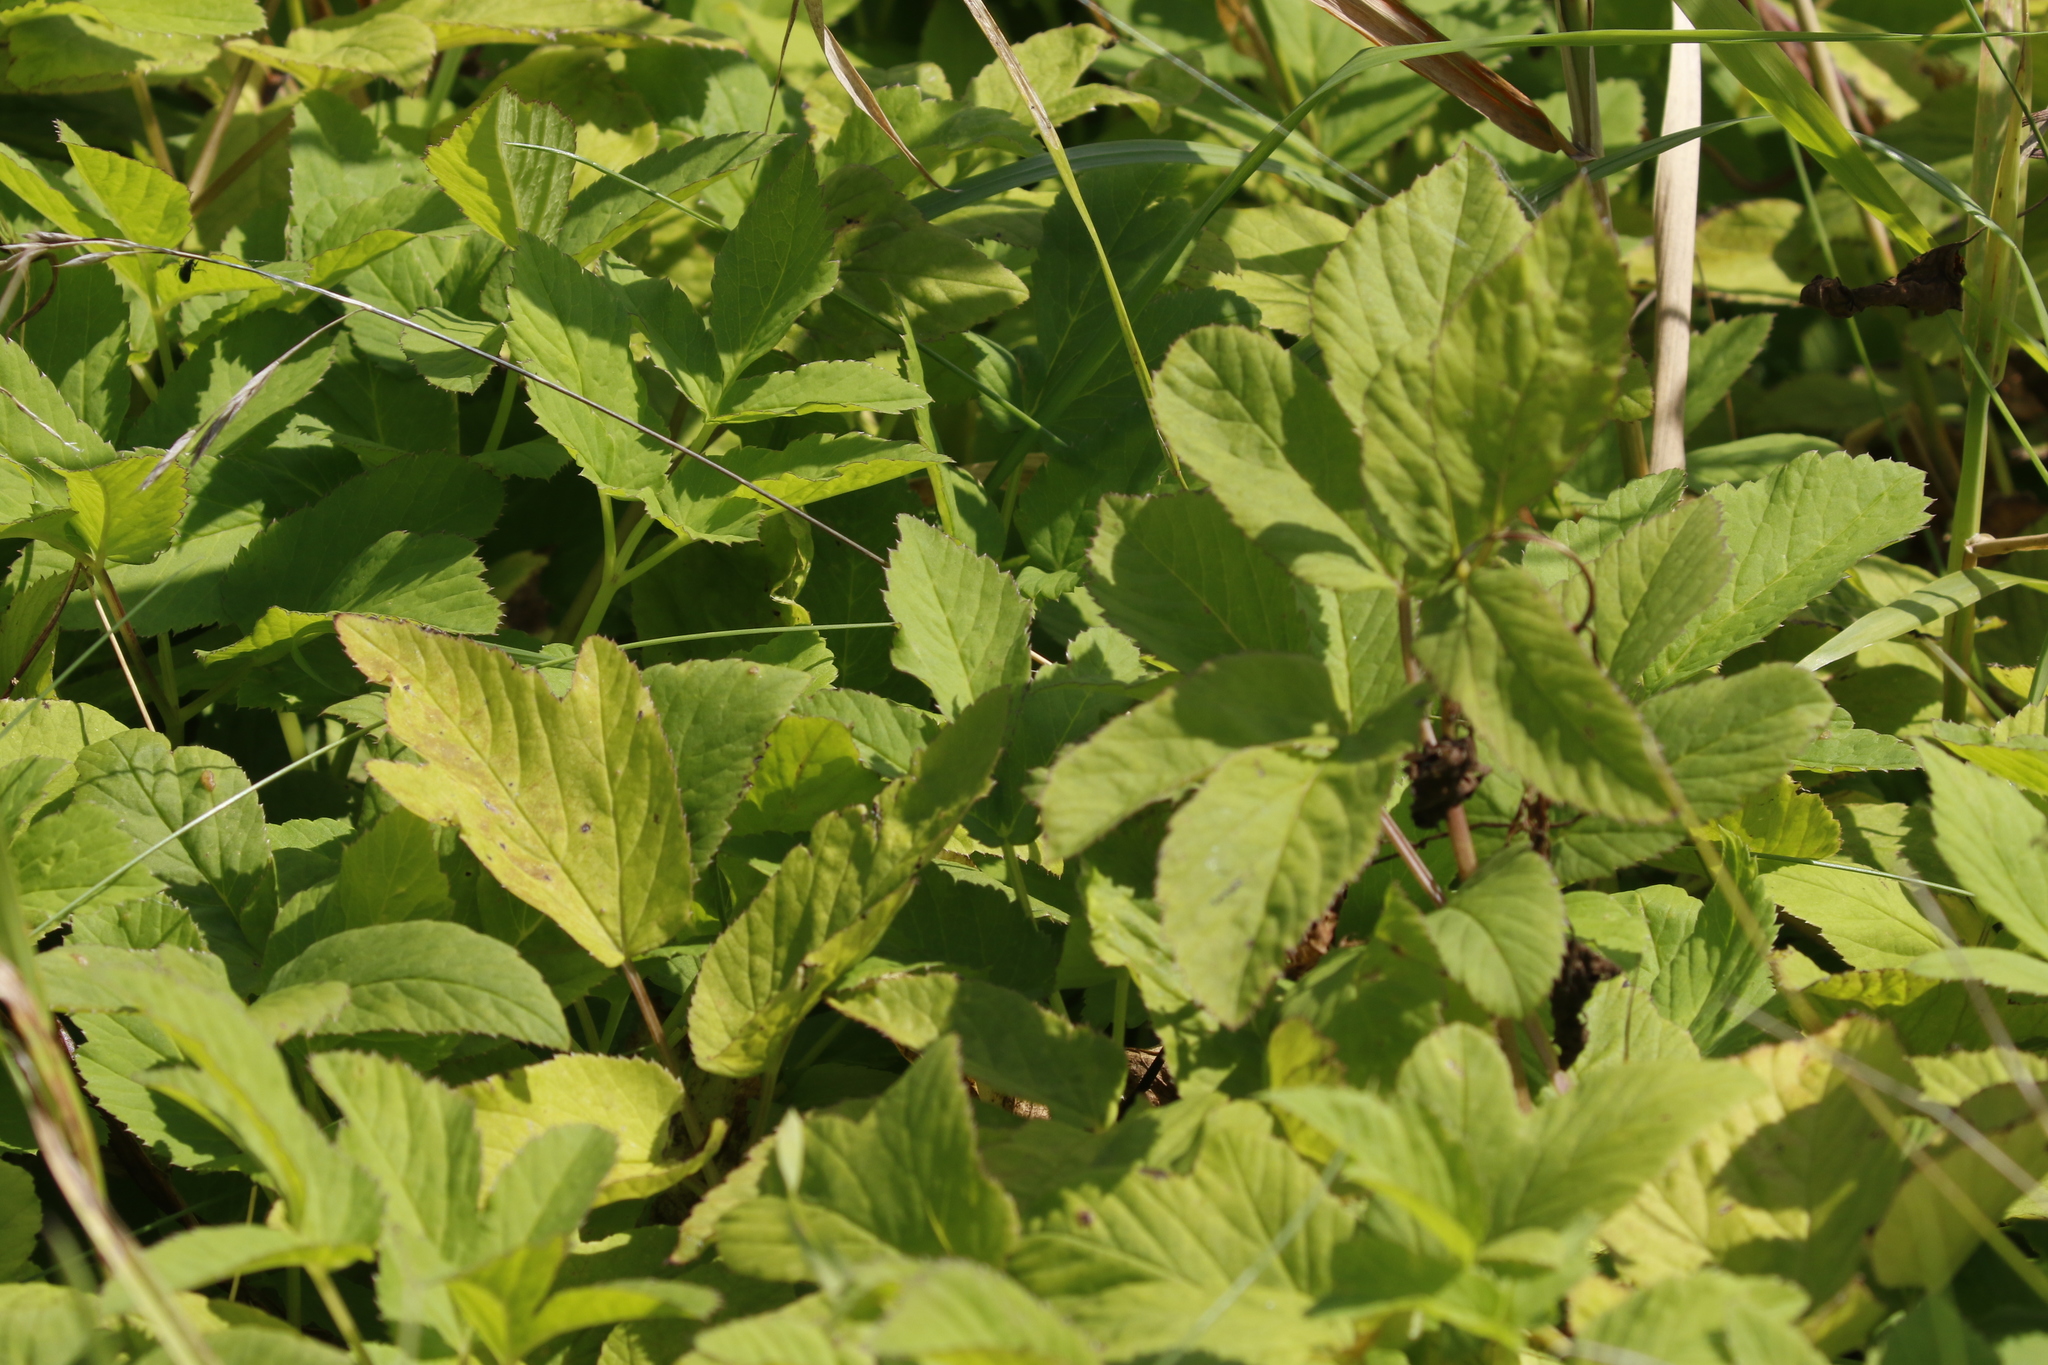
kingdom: Plantae
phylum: Tracheophyta
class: Magnoliopsida
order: Apiales
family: Apiaceae
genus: Aegopodium
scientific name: Aegopodium podagraria
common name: Ground-elder
